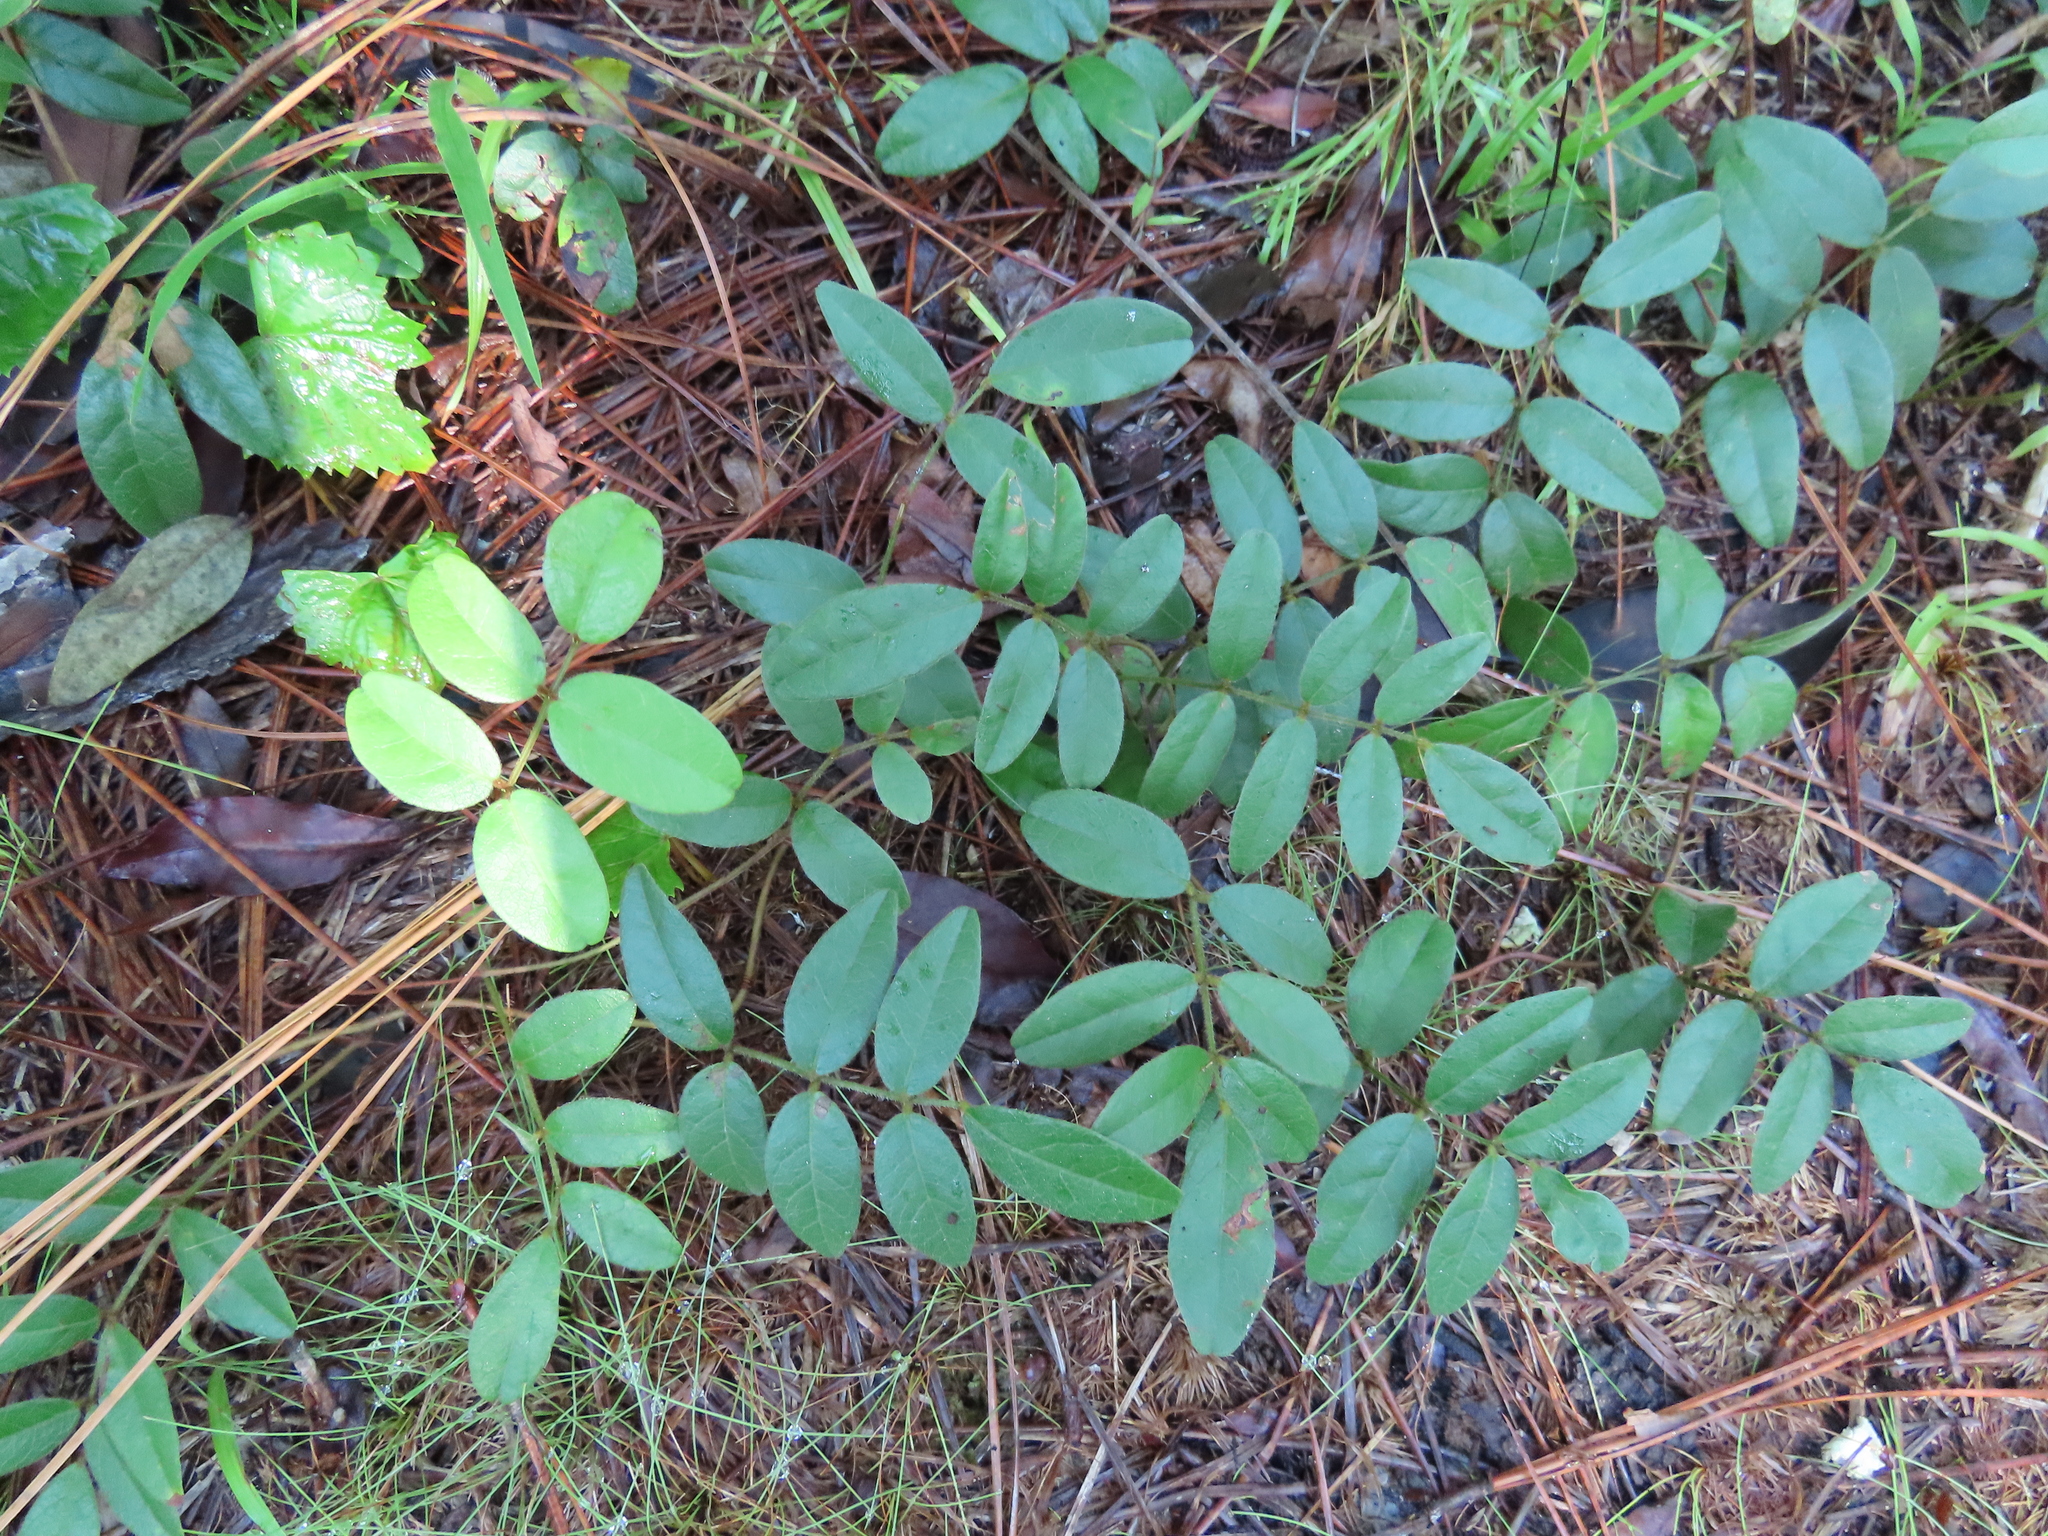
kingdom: Plantae
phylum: Tracheophyta
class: Magnoliopsida
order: Fabales
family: Fabaceae
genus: Galactia
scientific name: Galactia elliottii
